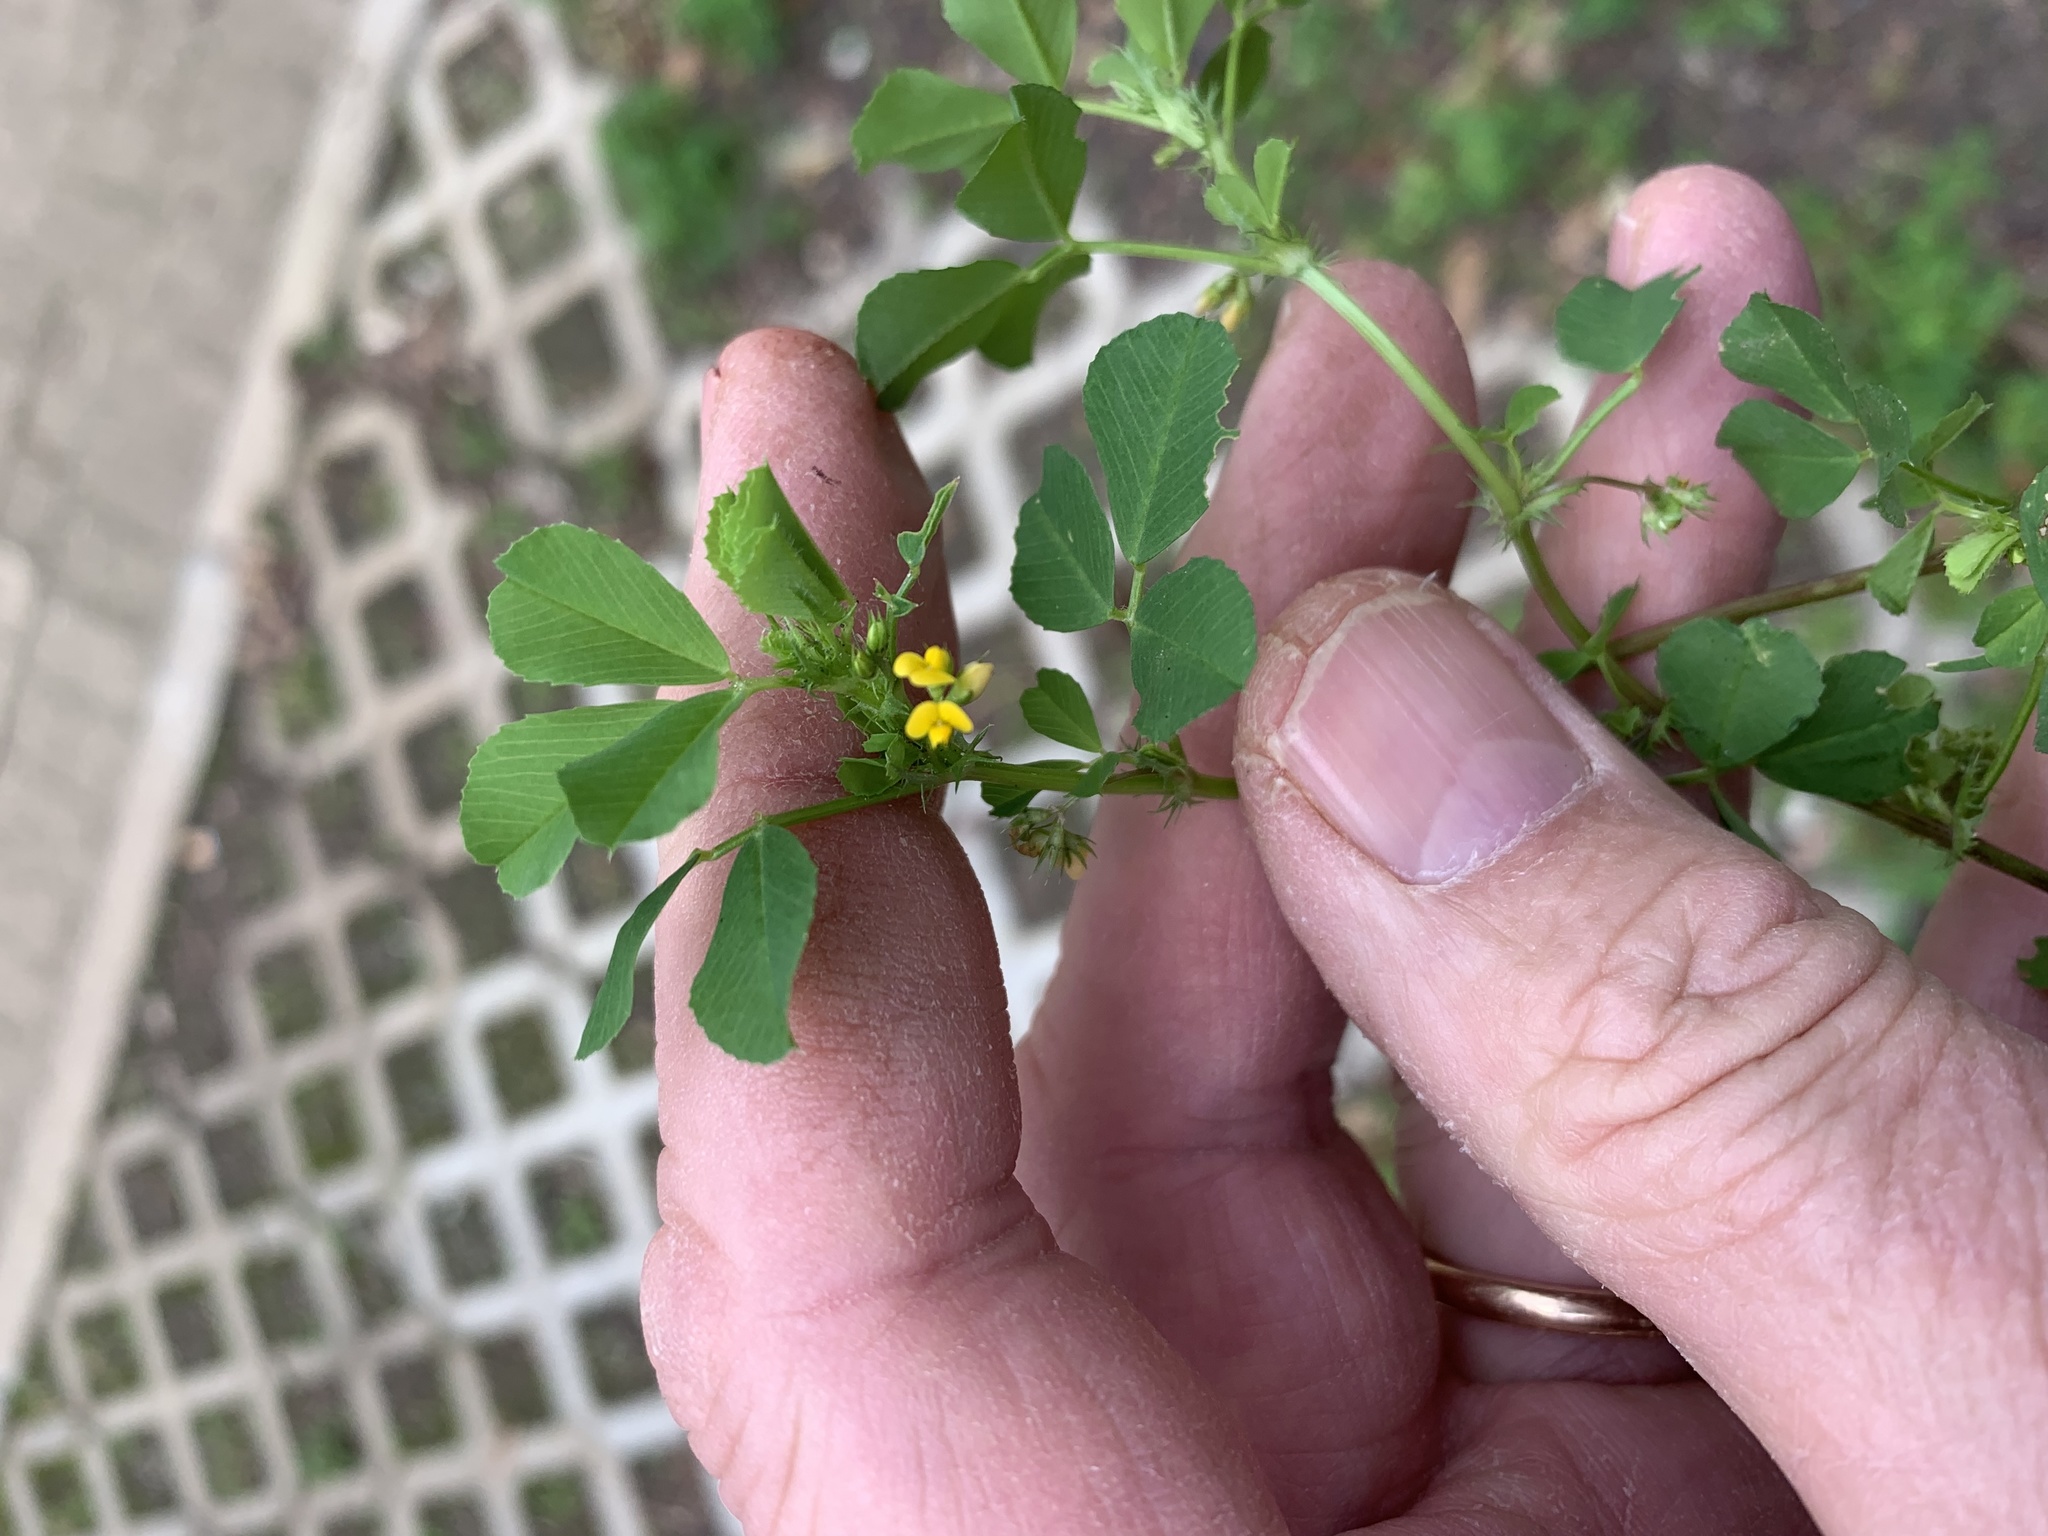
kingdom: Plantae
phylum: Tracheophyta
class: Magnoliopsida
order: Fabales
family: Fabaceae
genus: Medicago
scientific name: Medicago polymorpha
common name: Burclover
